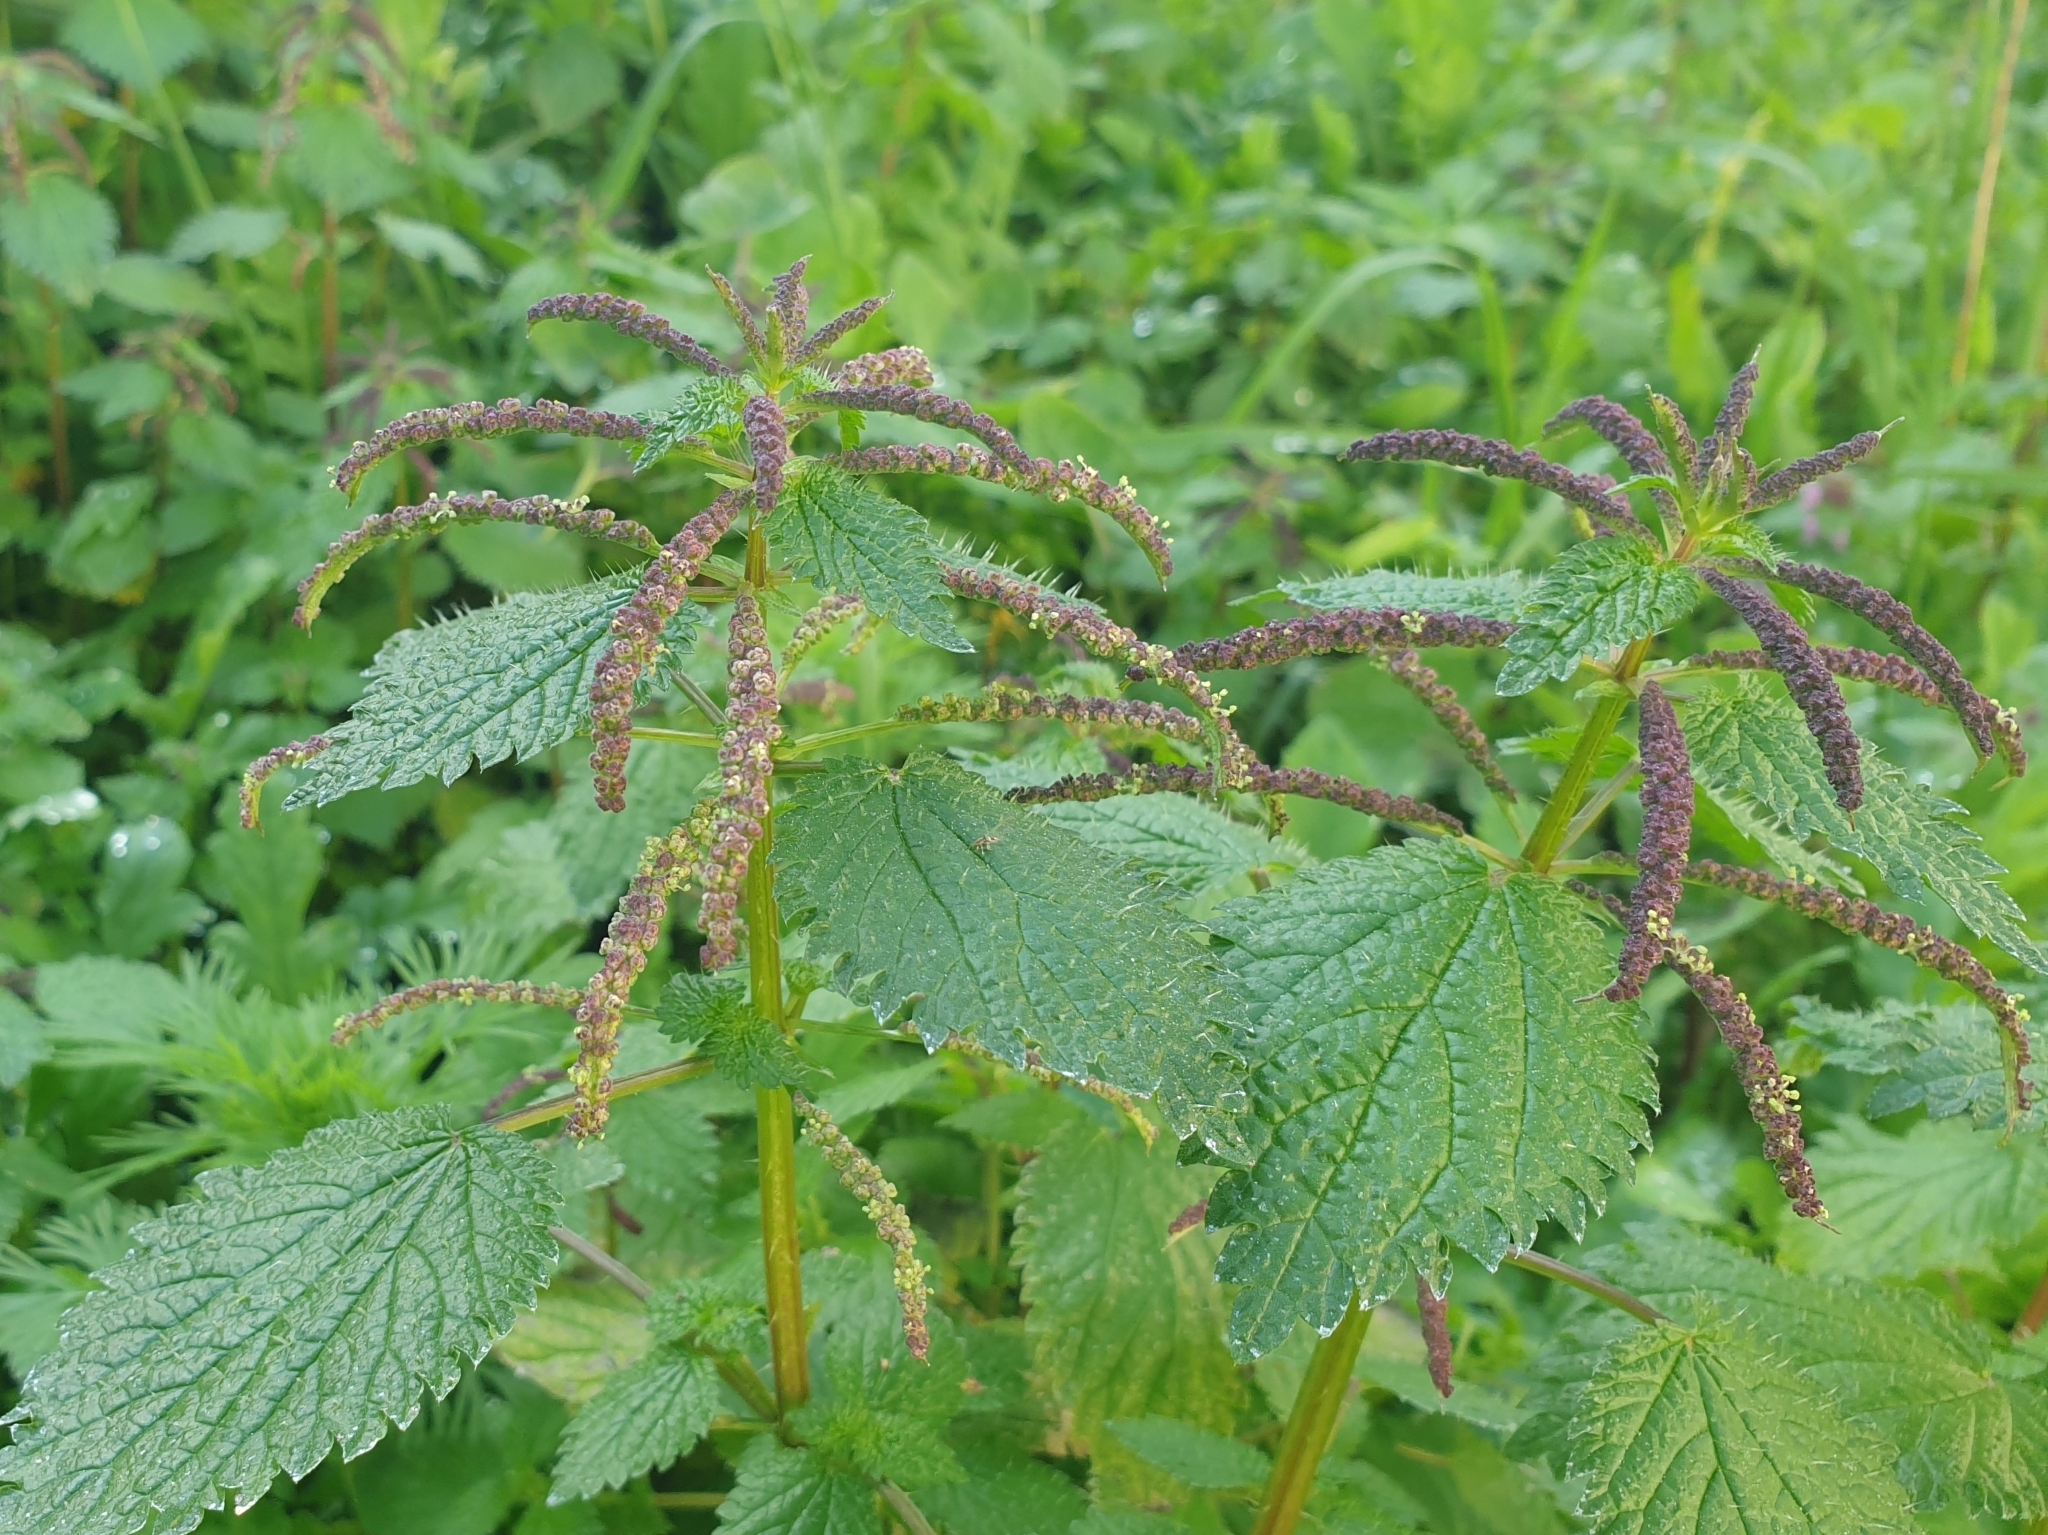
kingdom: Plantae
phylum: Tracheophyta
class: Magnoliopsida
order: Rosales
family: Urticaceae
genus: Urtica
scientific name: Urtica membranacea
